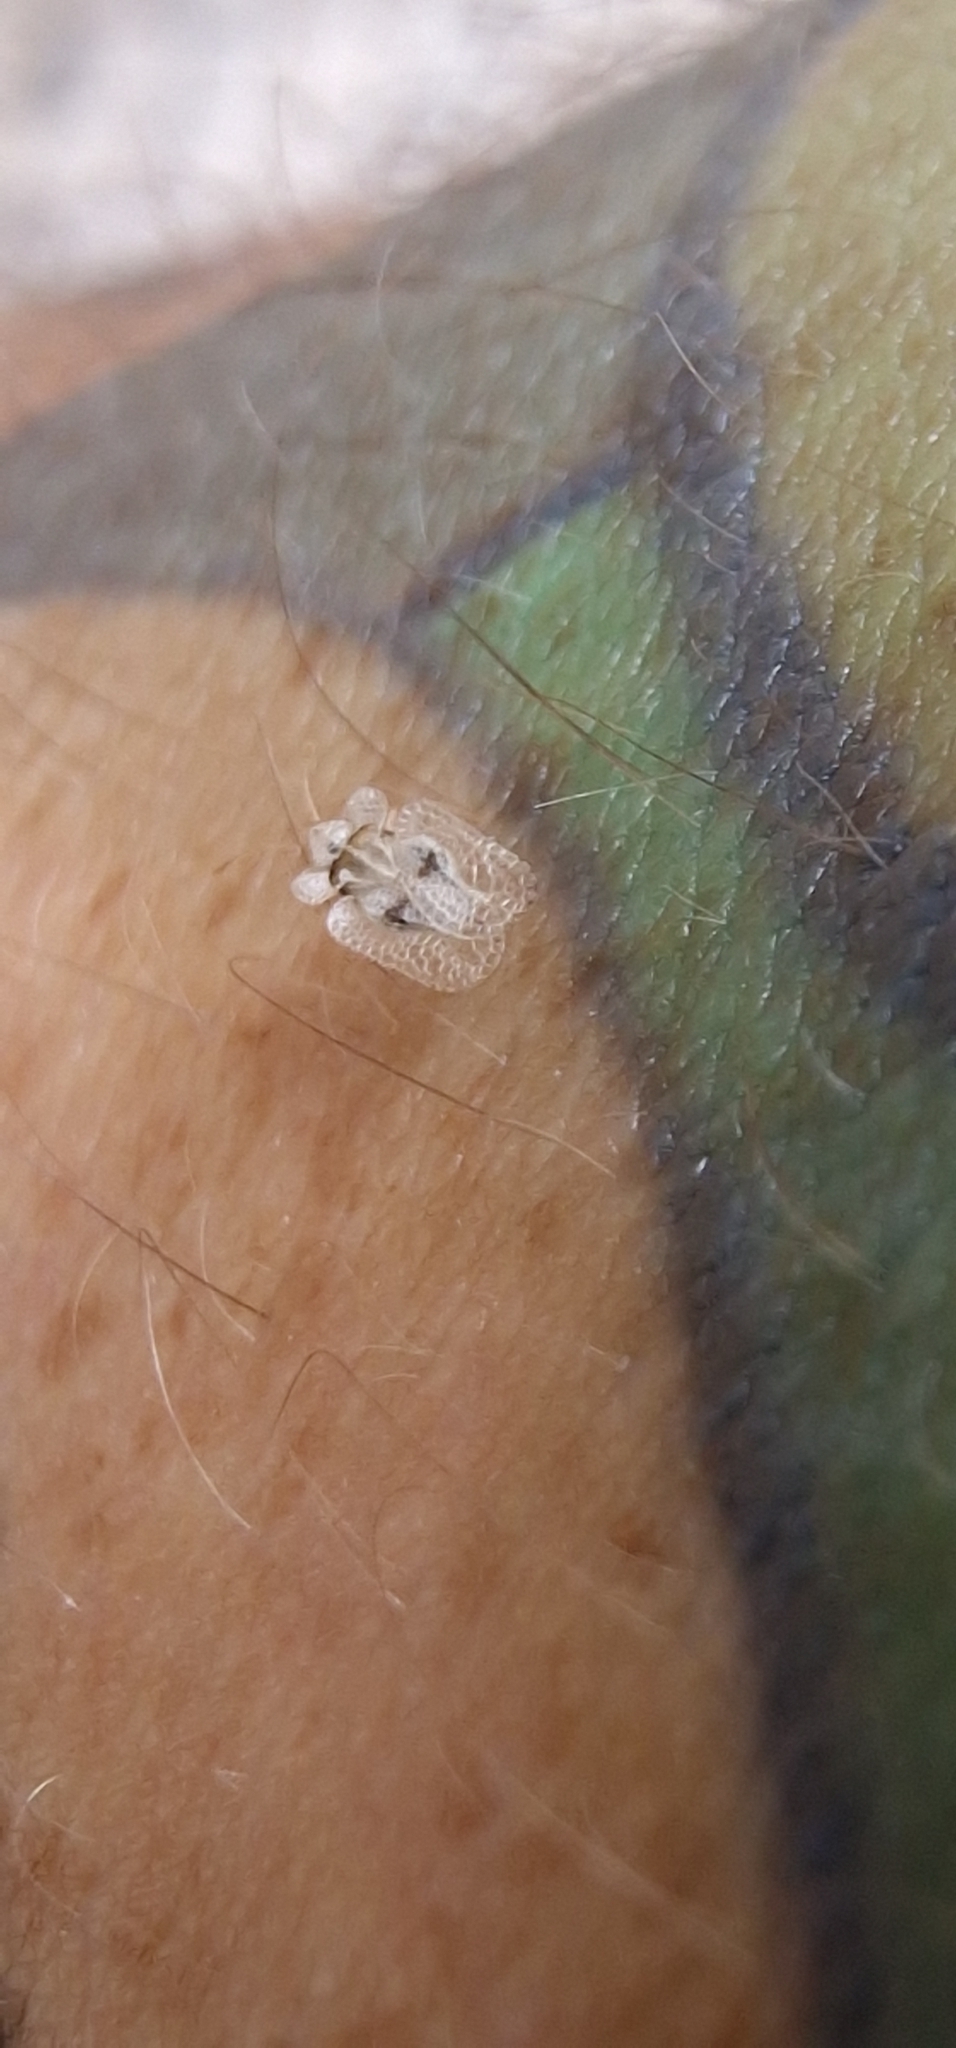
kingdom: Animalia
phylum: Arthropoda
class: Insecta
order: Hemiptera
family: Tingidae
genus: Corythucha
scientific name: Corythucha ciliata
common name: Sycamore lace bug
